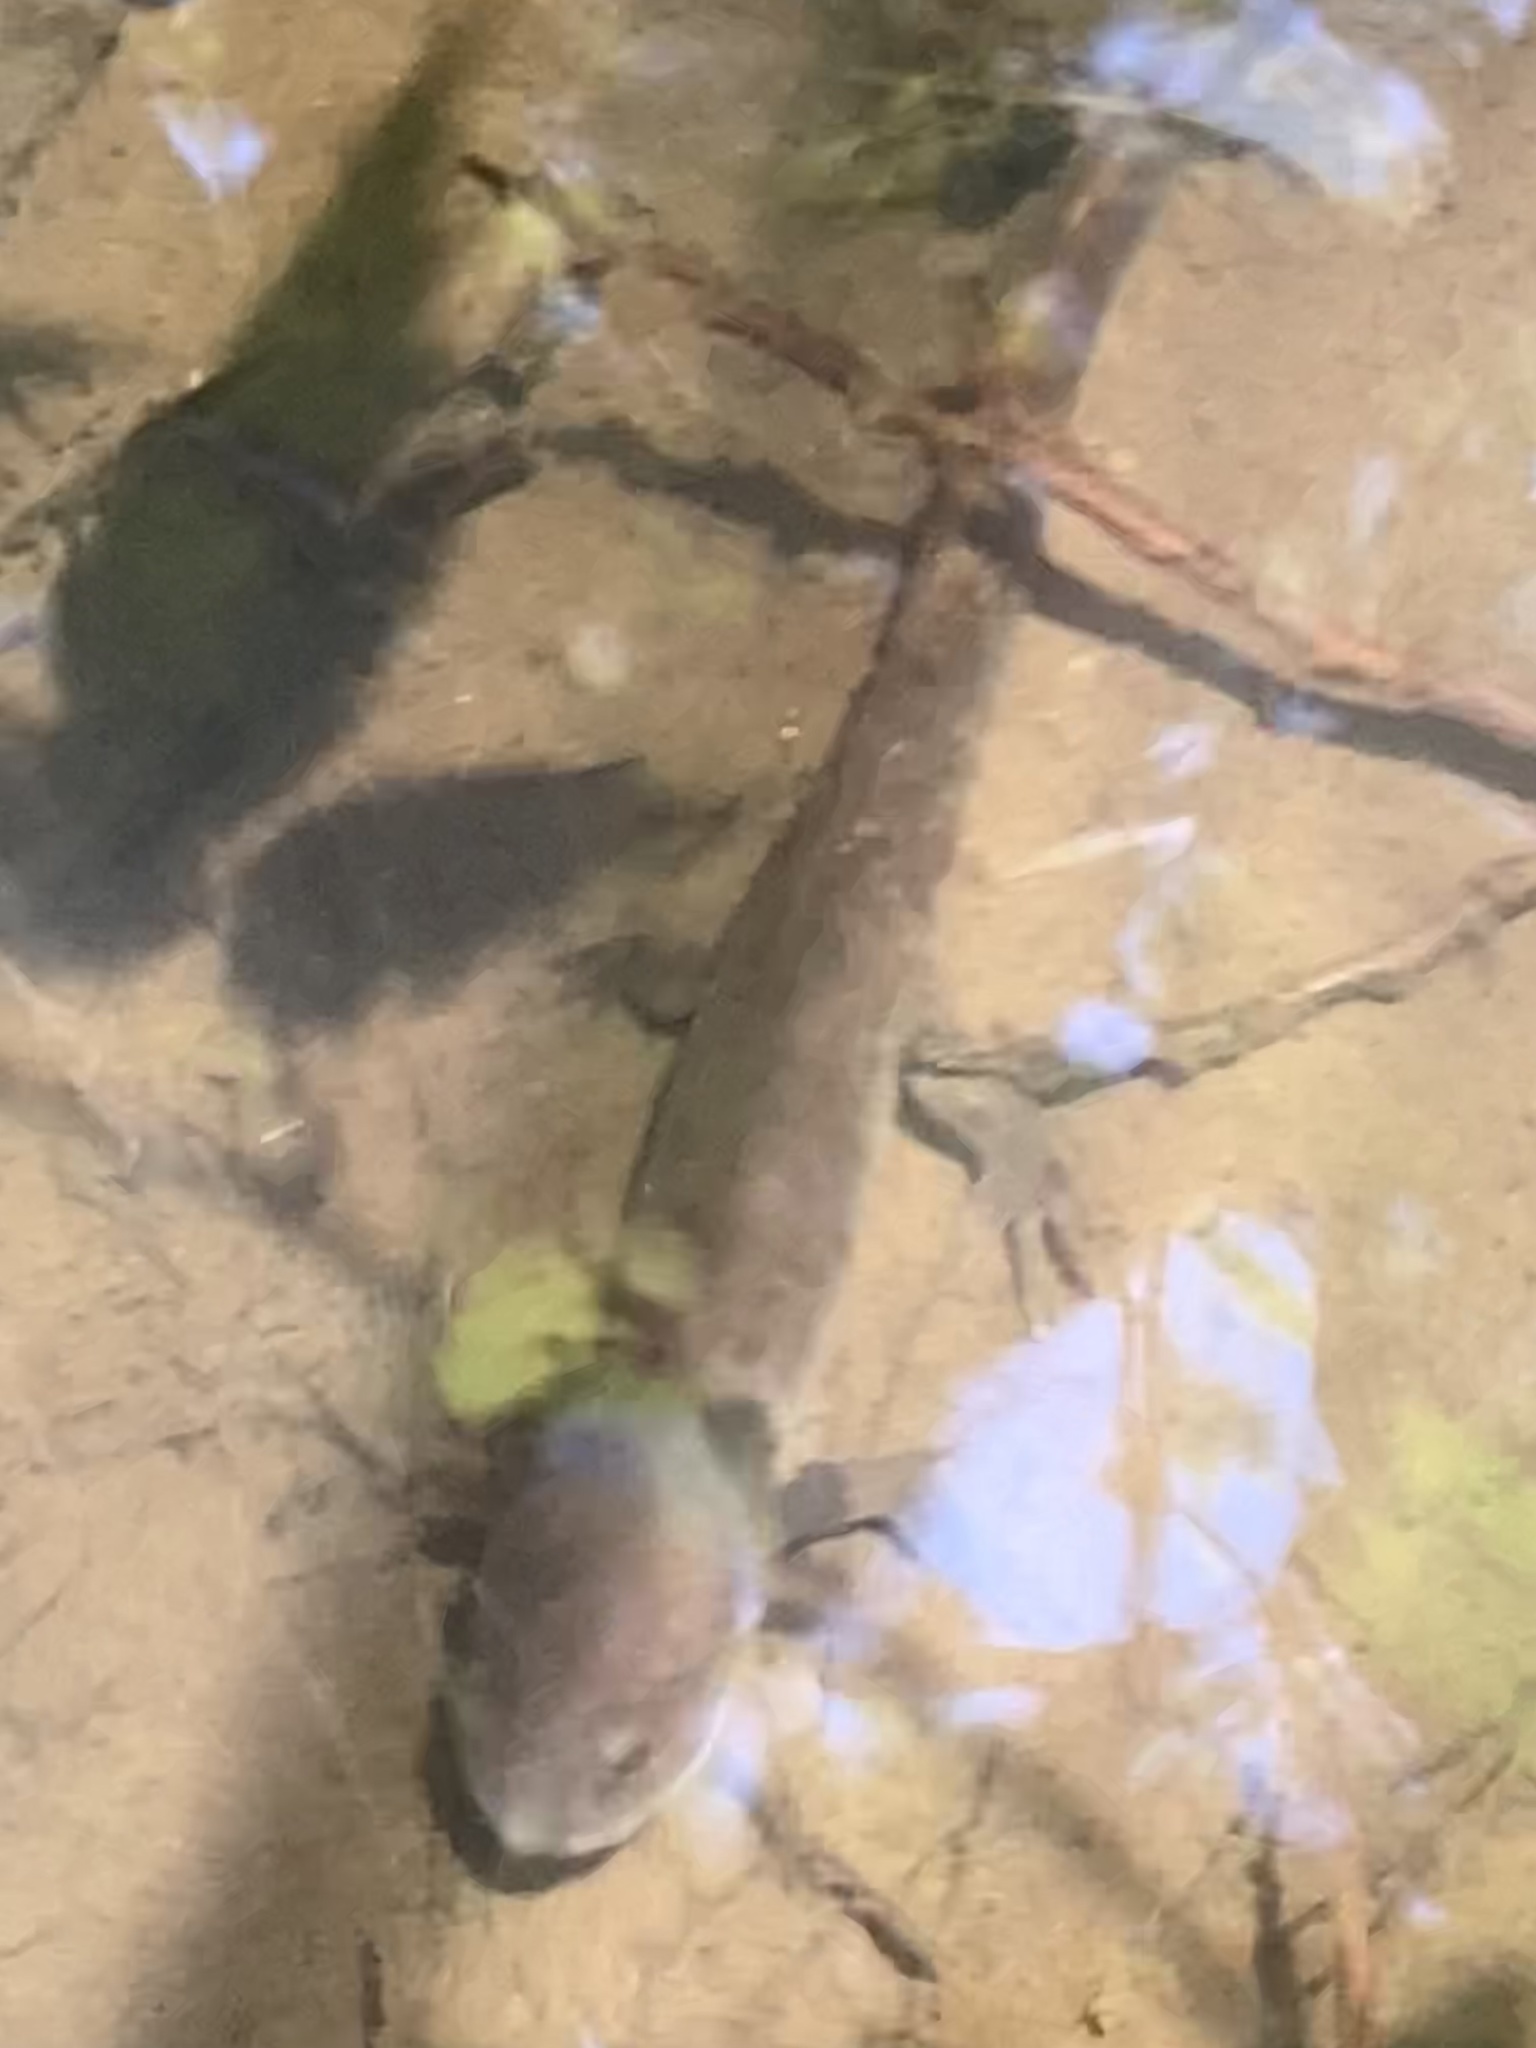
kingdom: Animalia
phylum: Chordata
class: Amphibia
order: Caudata
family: Ambystomatidae
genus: Ambystoma
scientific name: Ambystoma gracile
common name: Northwestern salamander
